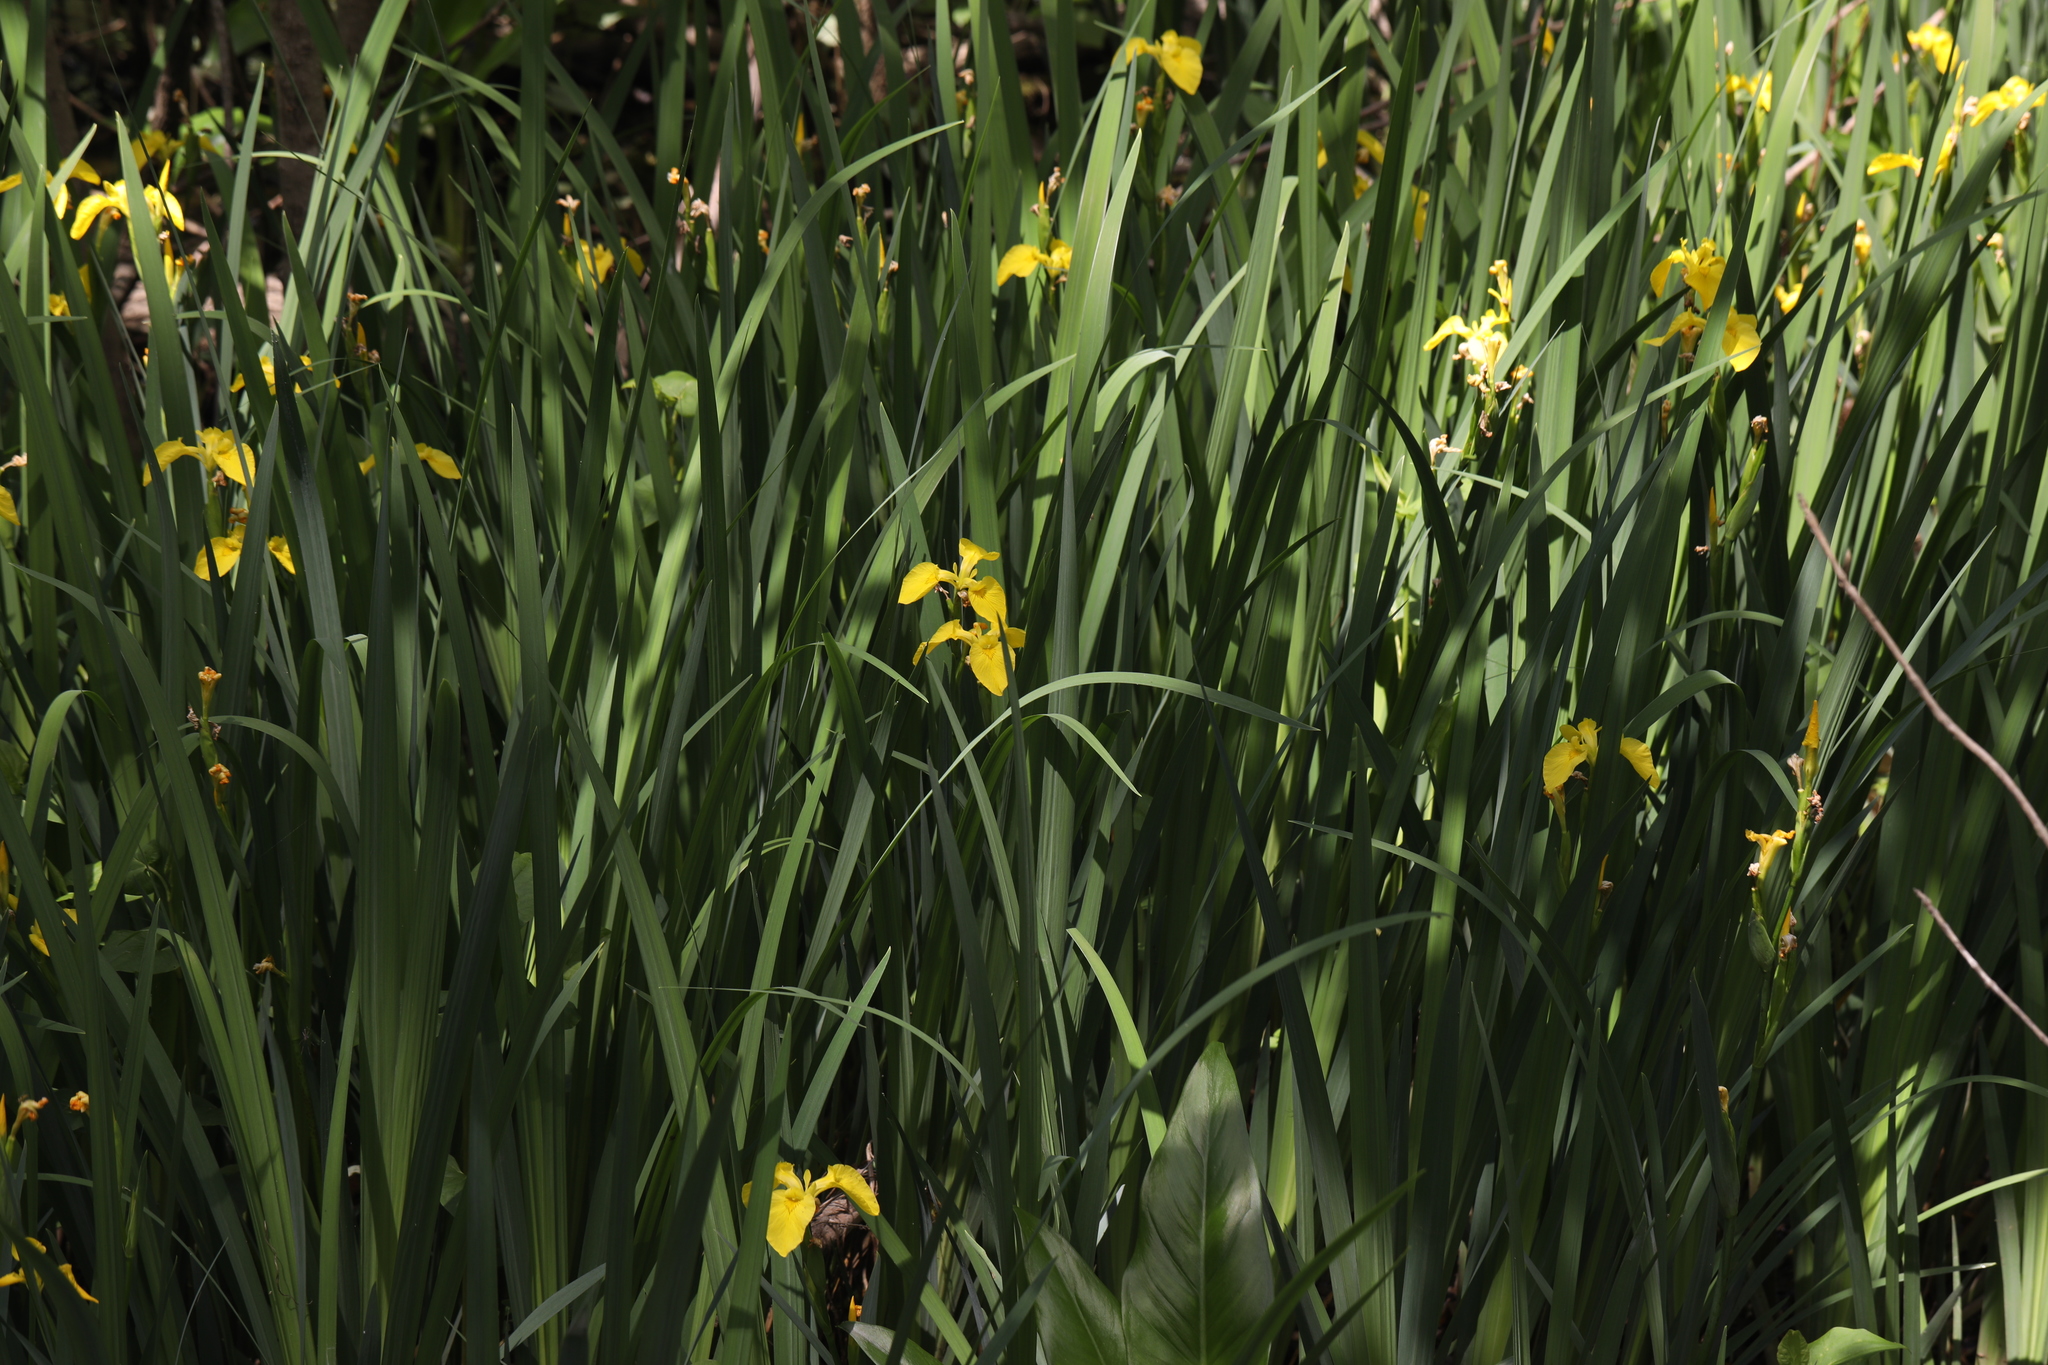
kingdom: Plantae
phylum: Tracheophyta
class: Liliopsida
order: Asparagales
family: Iridaceae
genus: Iris
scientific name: Iris pseudacorus
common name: Yellow flag
